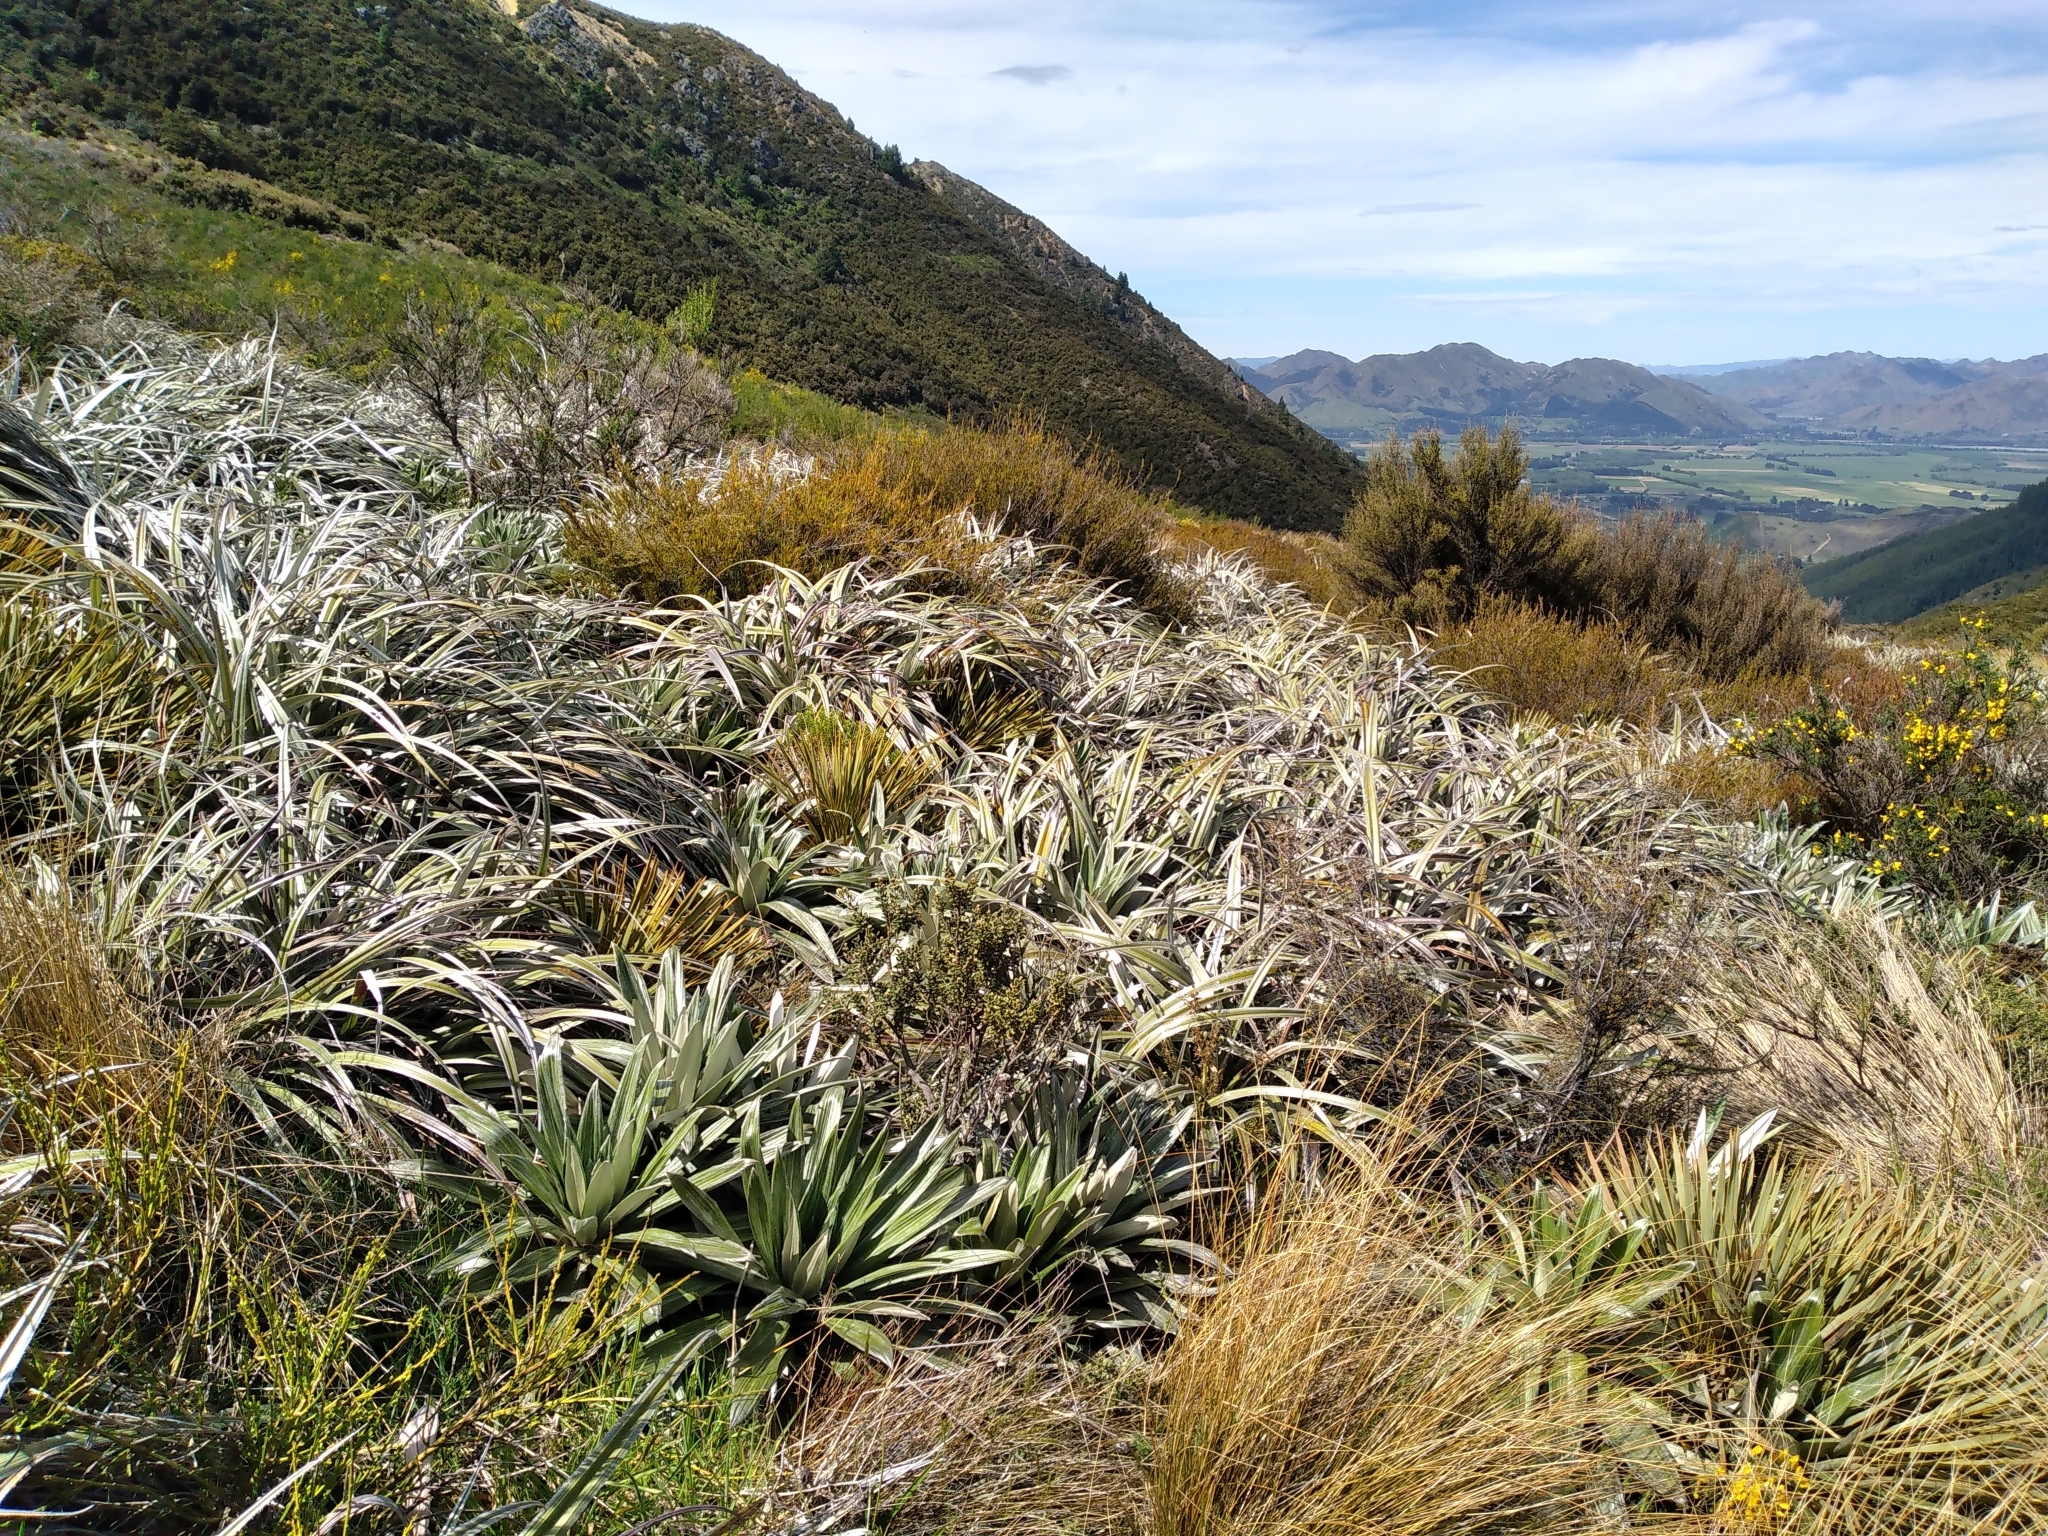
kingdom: Plantae
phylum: Tracheophyta
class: Liliopsida
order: Asparagales
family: Asteliaceae
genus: Astelia
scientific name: Astelia nervosa
